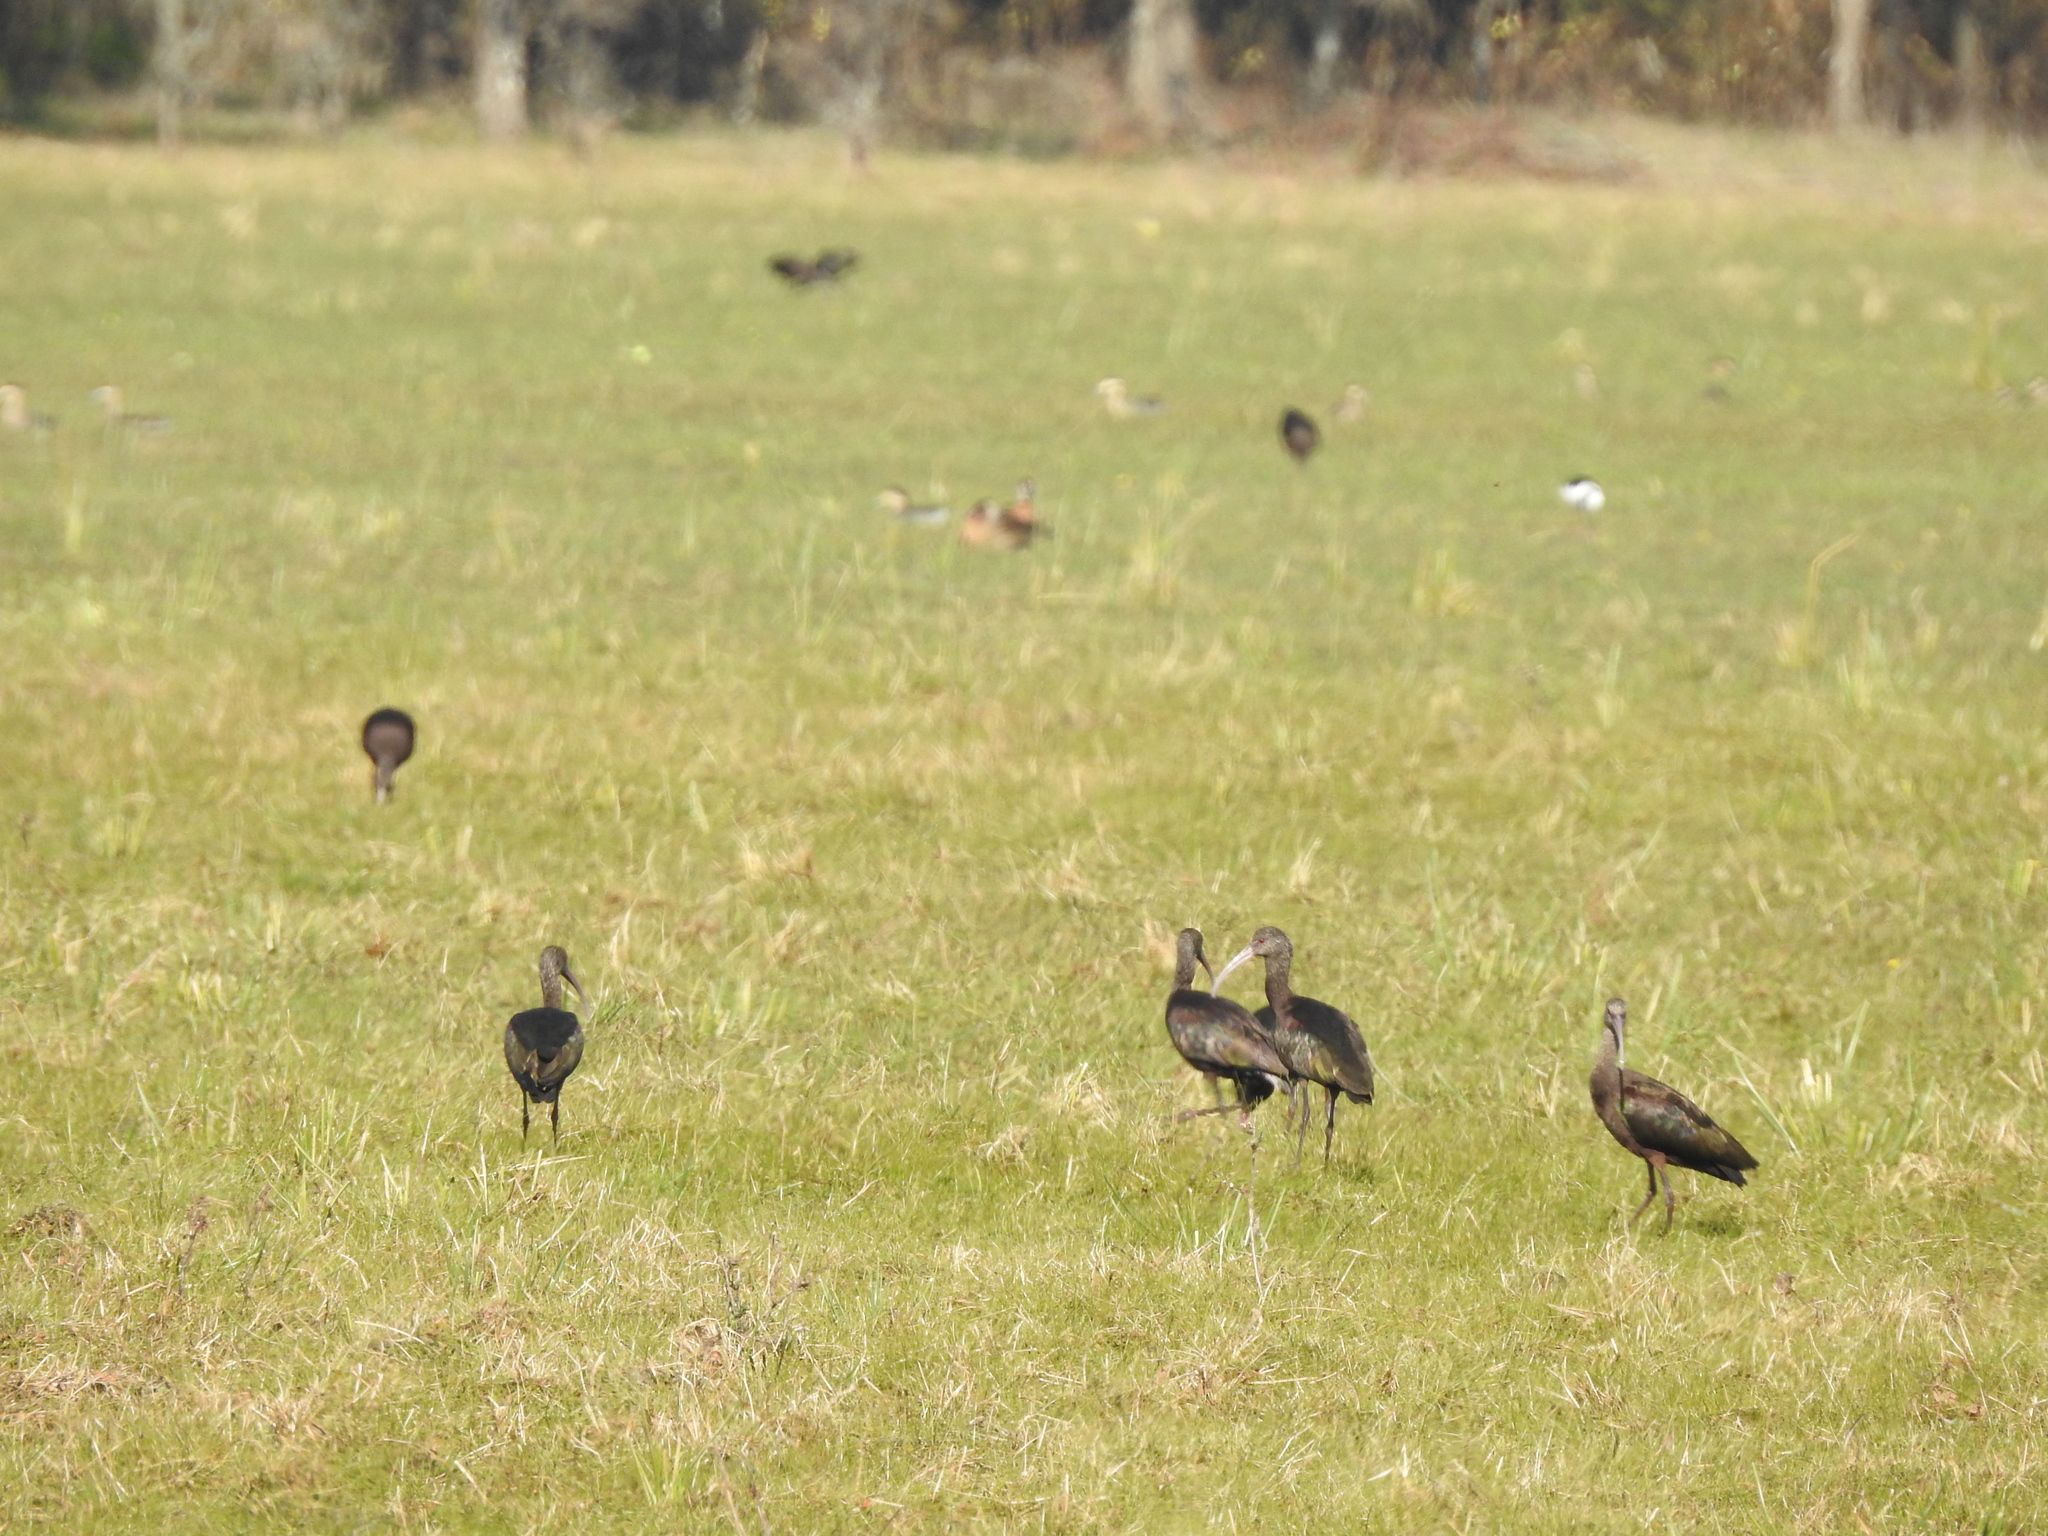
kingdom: Animalia
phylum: Chordata
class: Aves
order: Pelecaniformes
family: Threskiornithidae
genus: Plegadis
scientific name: Plegadis chihi
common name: White-faced ibis
